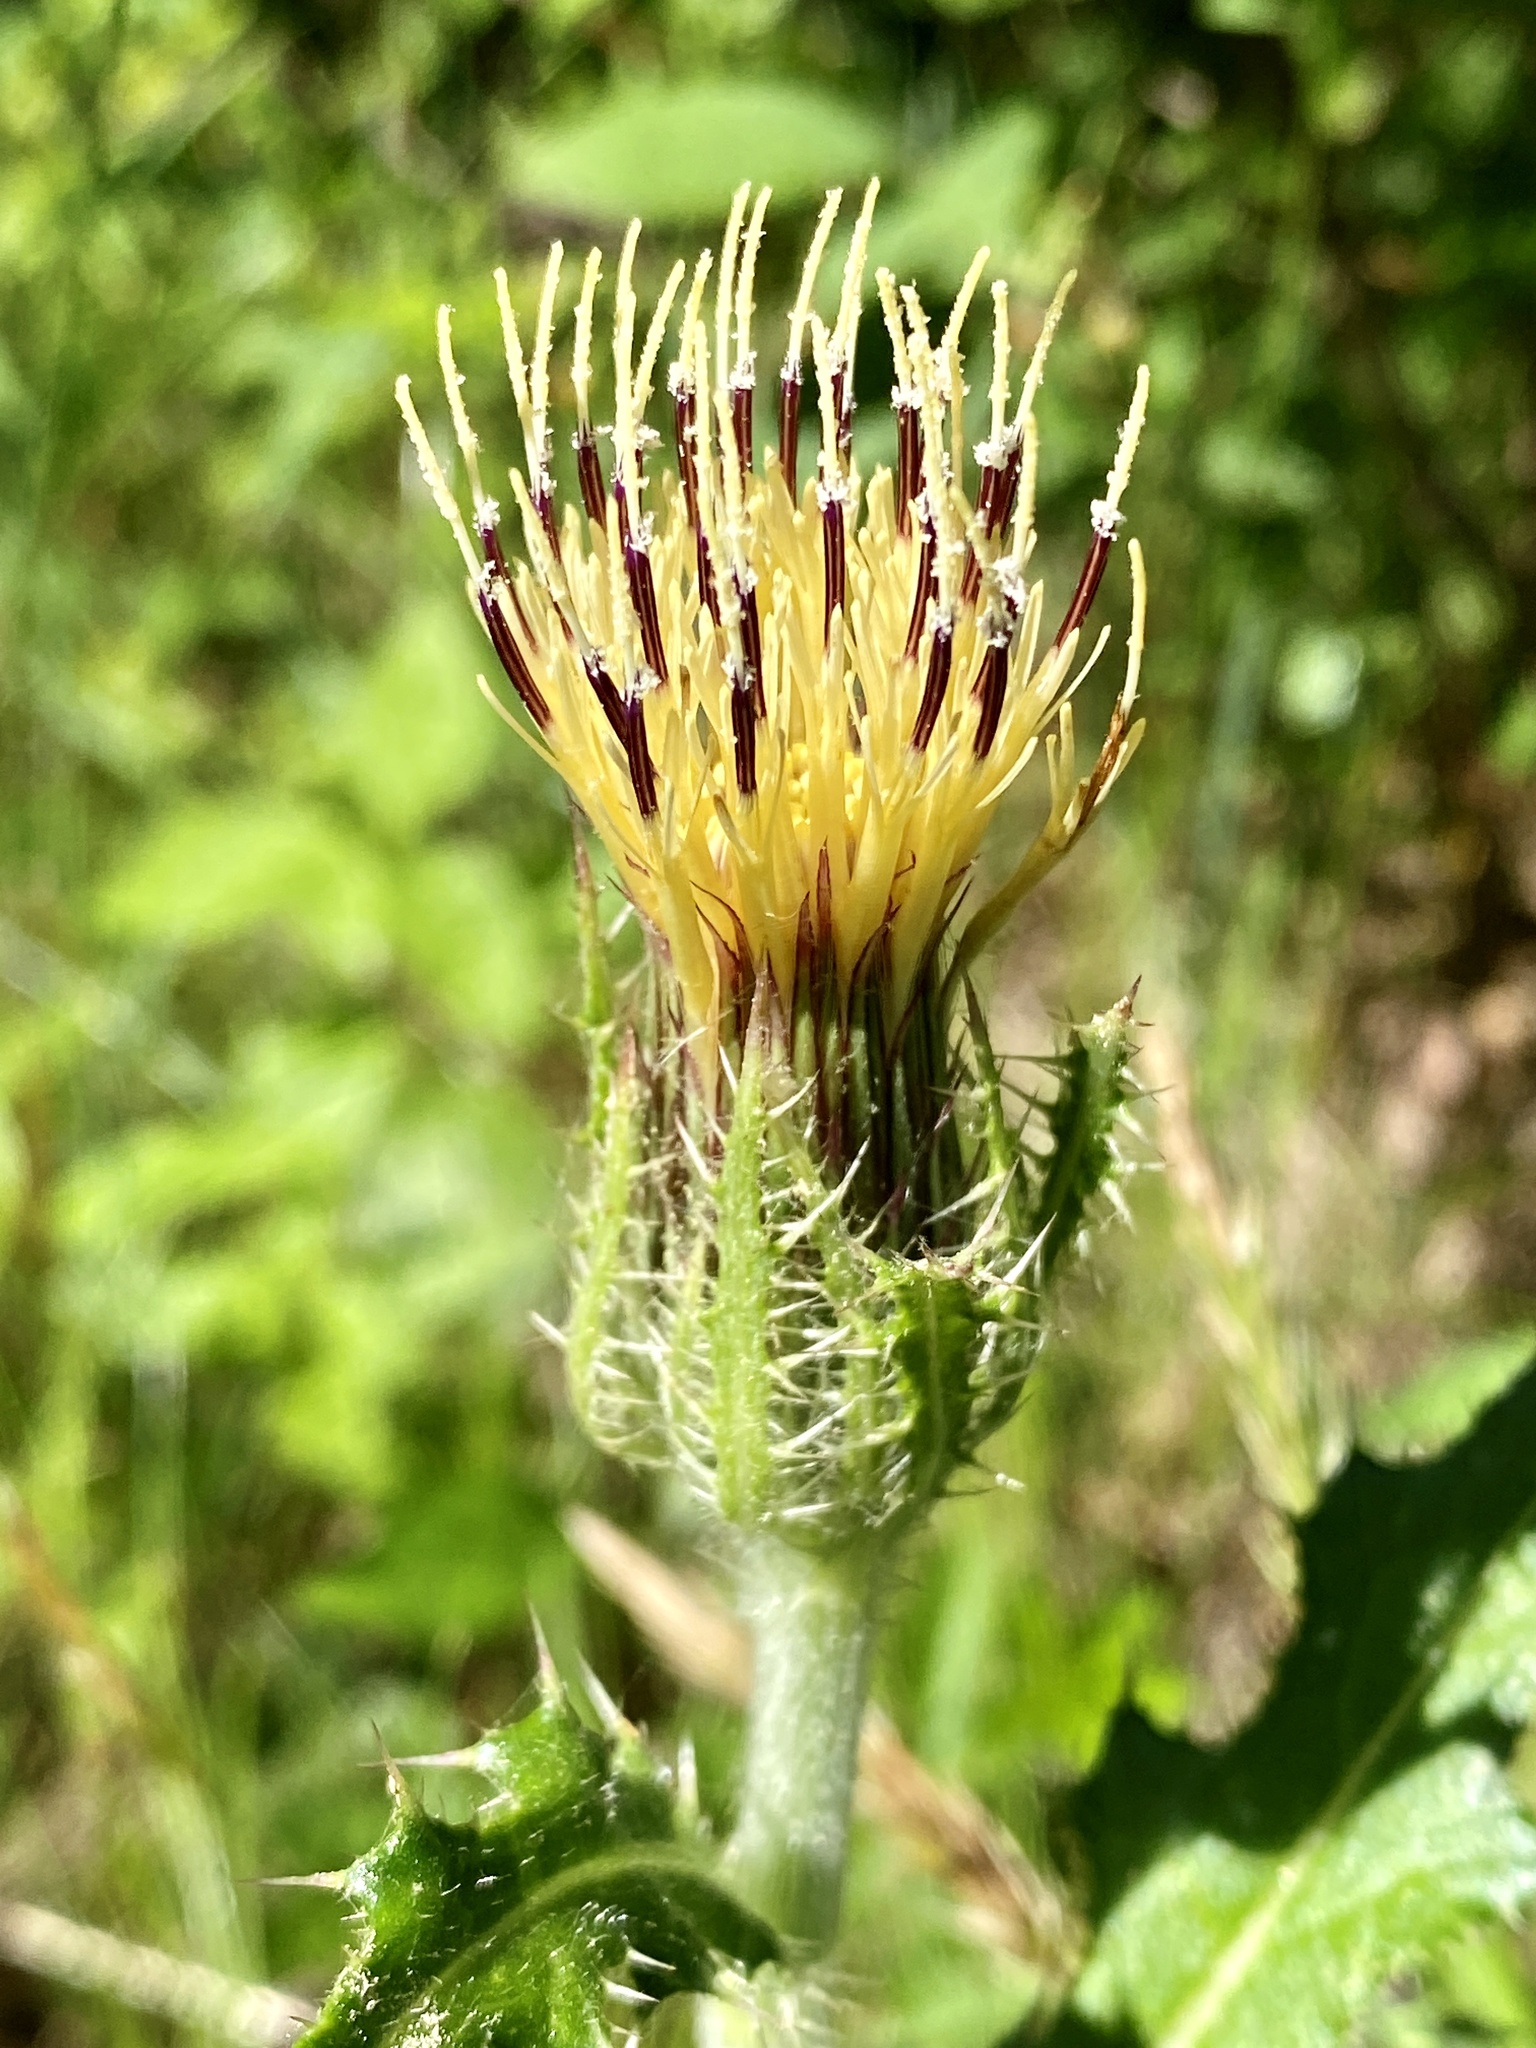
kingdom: Plantae
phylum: Tracheophyta
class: Magnoliopsida
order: Asterales
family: Asteraceae
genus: Cirsium
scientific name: Cirsium horridulum
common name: Bristly thistle
